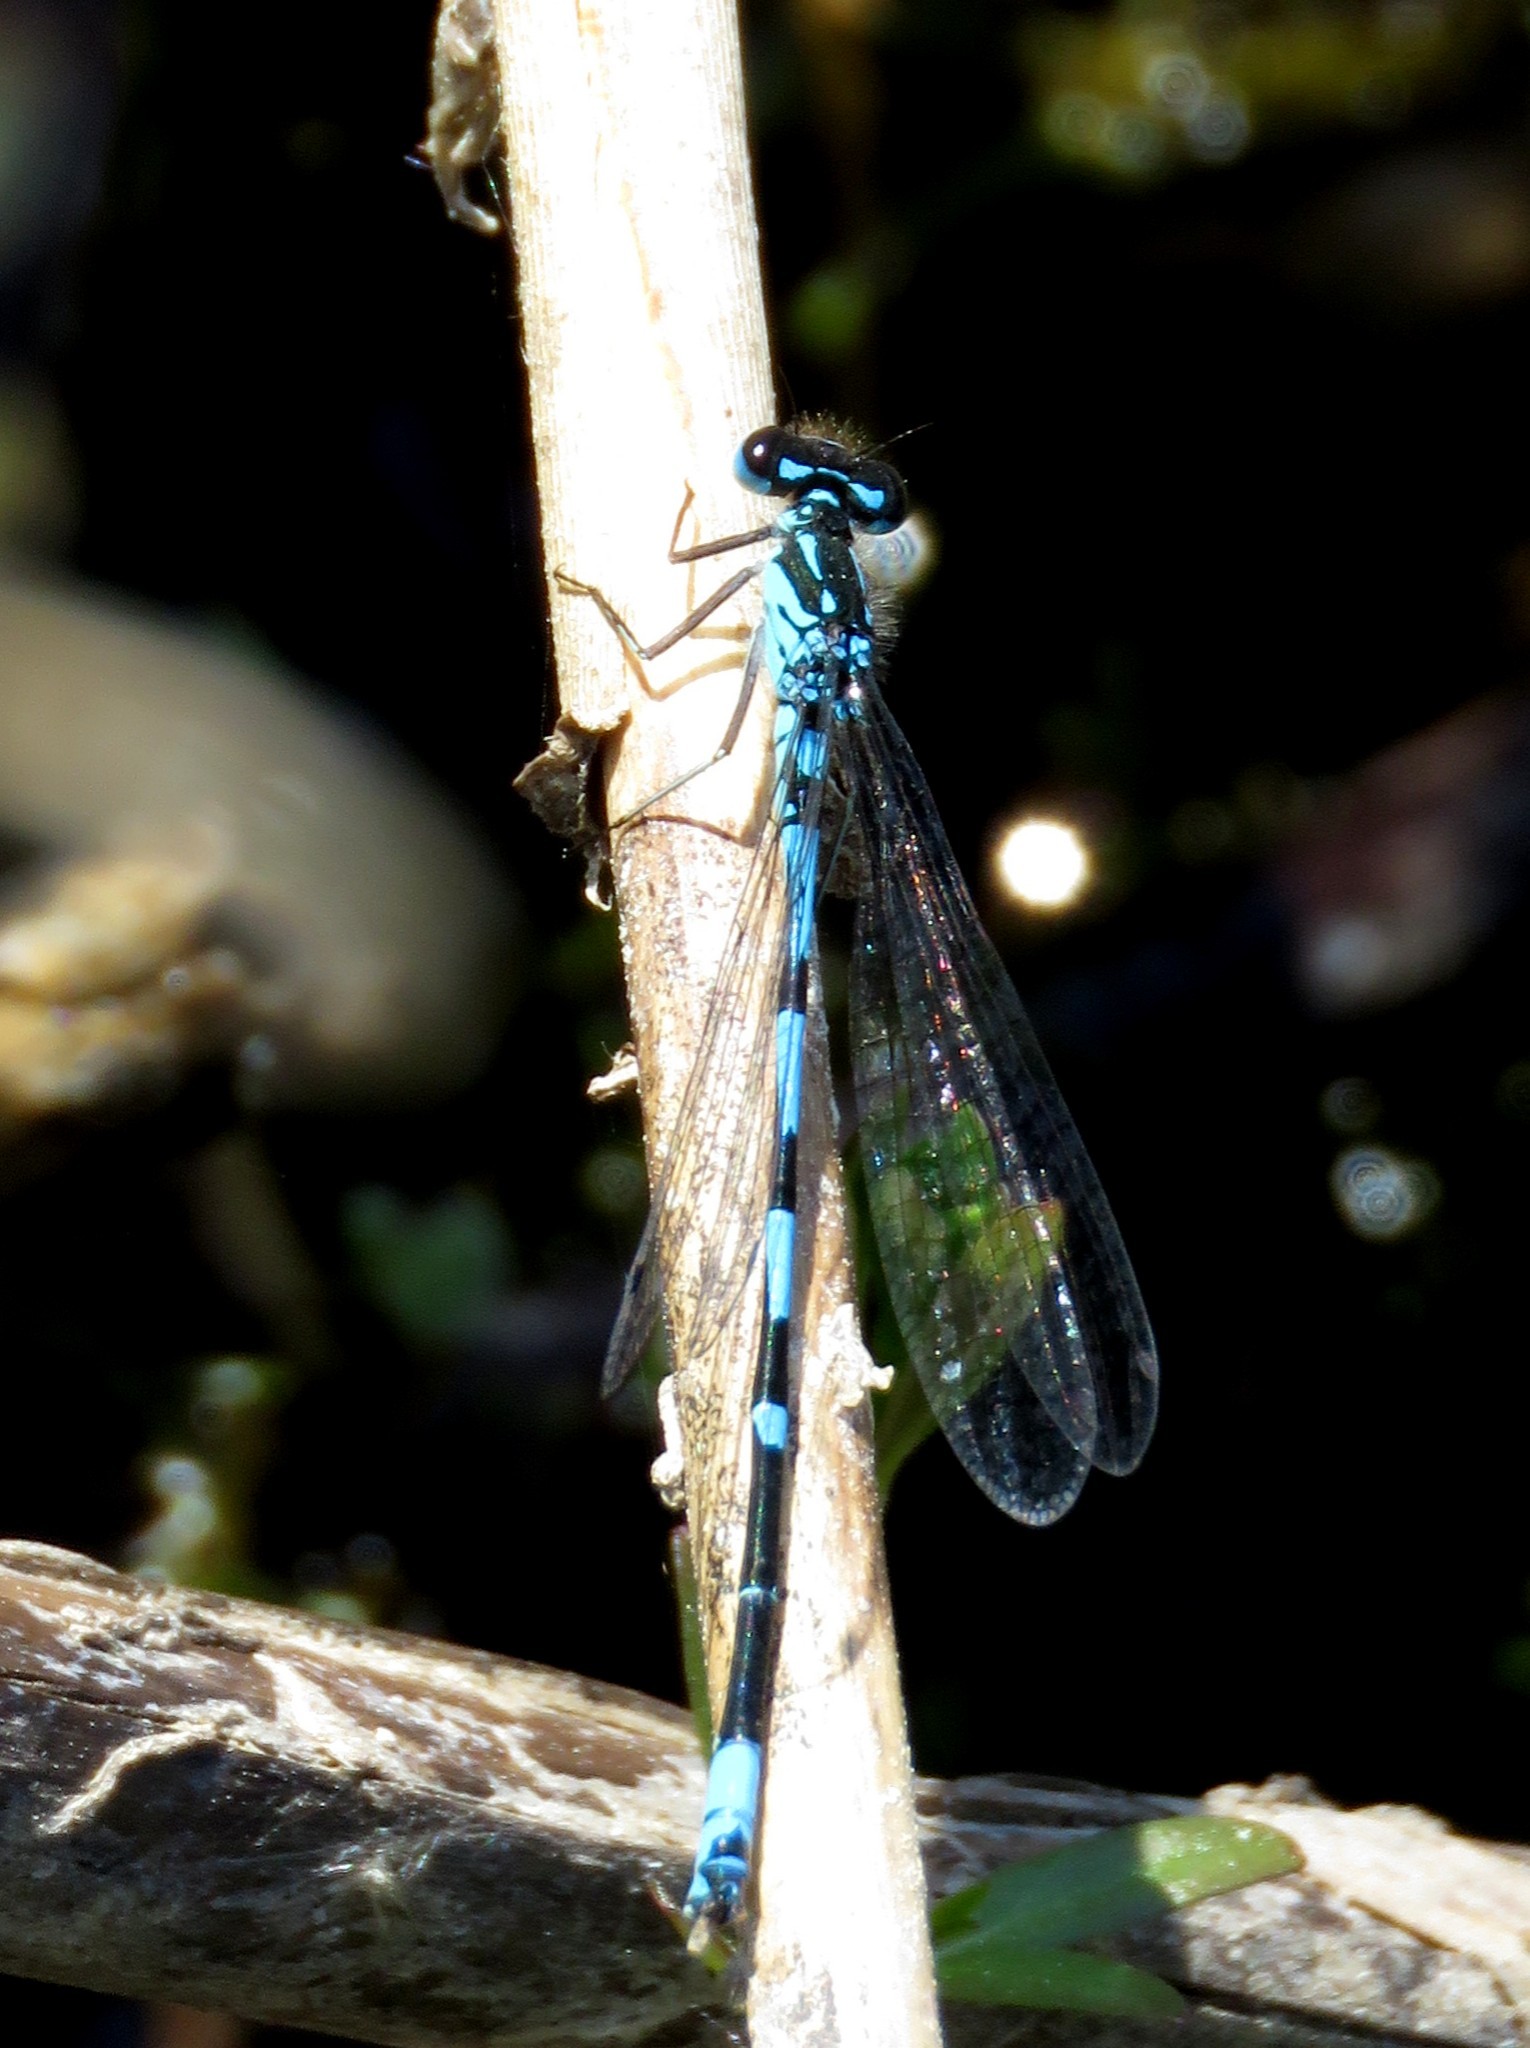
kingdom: Animalia
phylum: Arthropoda
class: Insecta
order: Odonata
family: Coenagrionidae
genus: Coenagrion
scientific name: Coenagrion pulchellum
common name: Variable bluet
